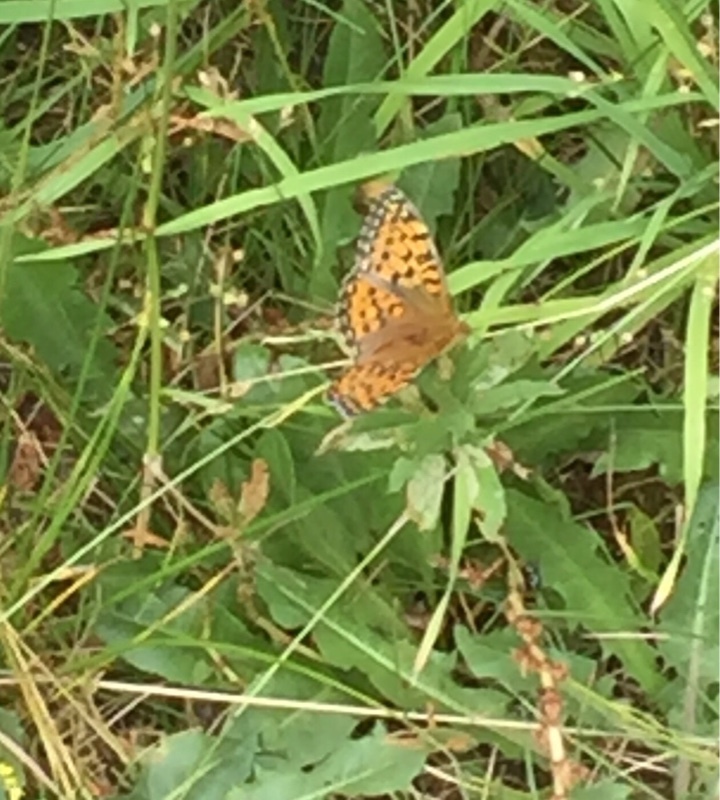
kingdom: Animalia
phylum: Arthropoda
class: Insecta
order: Lepidoptera
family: Nymphalidae
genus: Speyeria
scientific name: Speyeria aglaja
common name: Dark green fritillary
